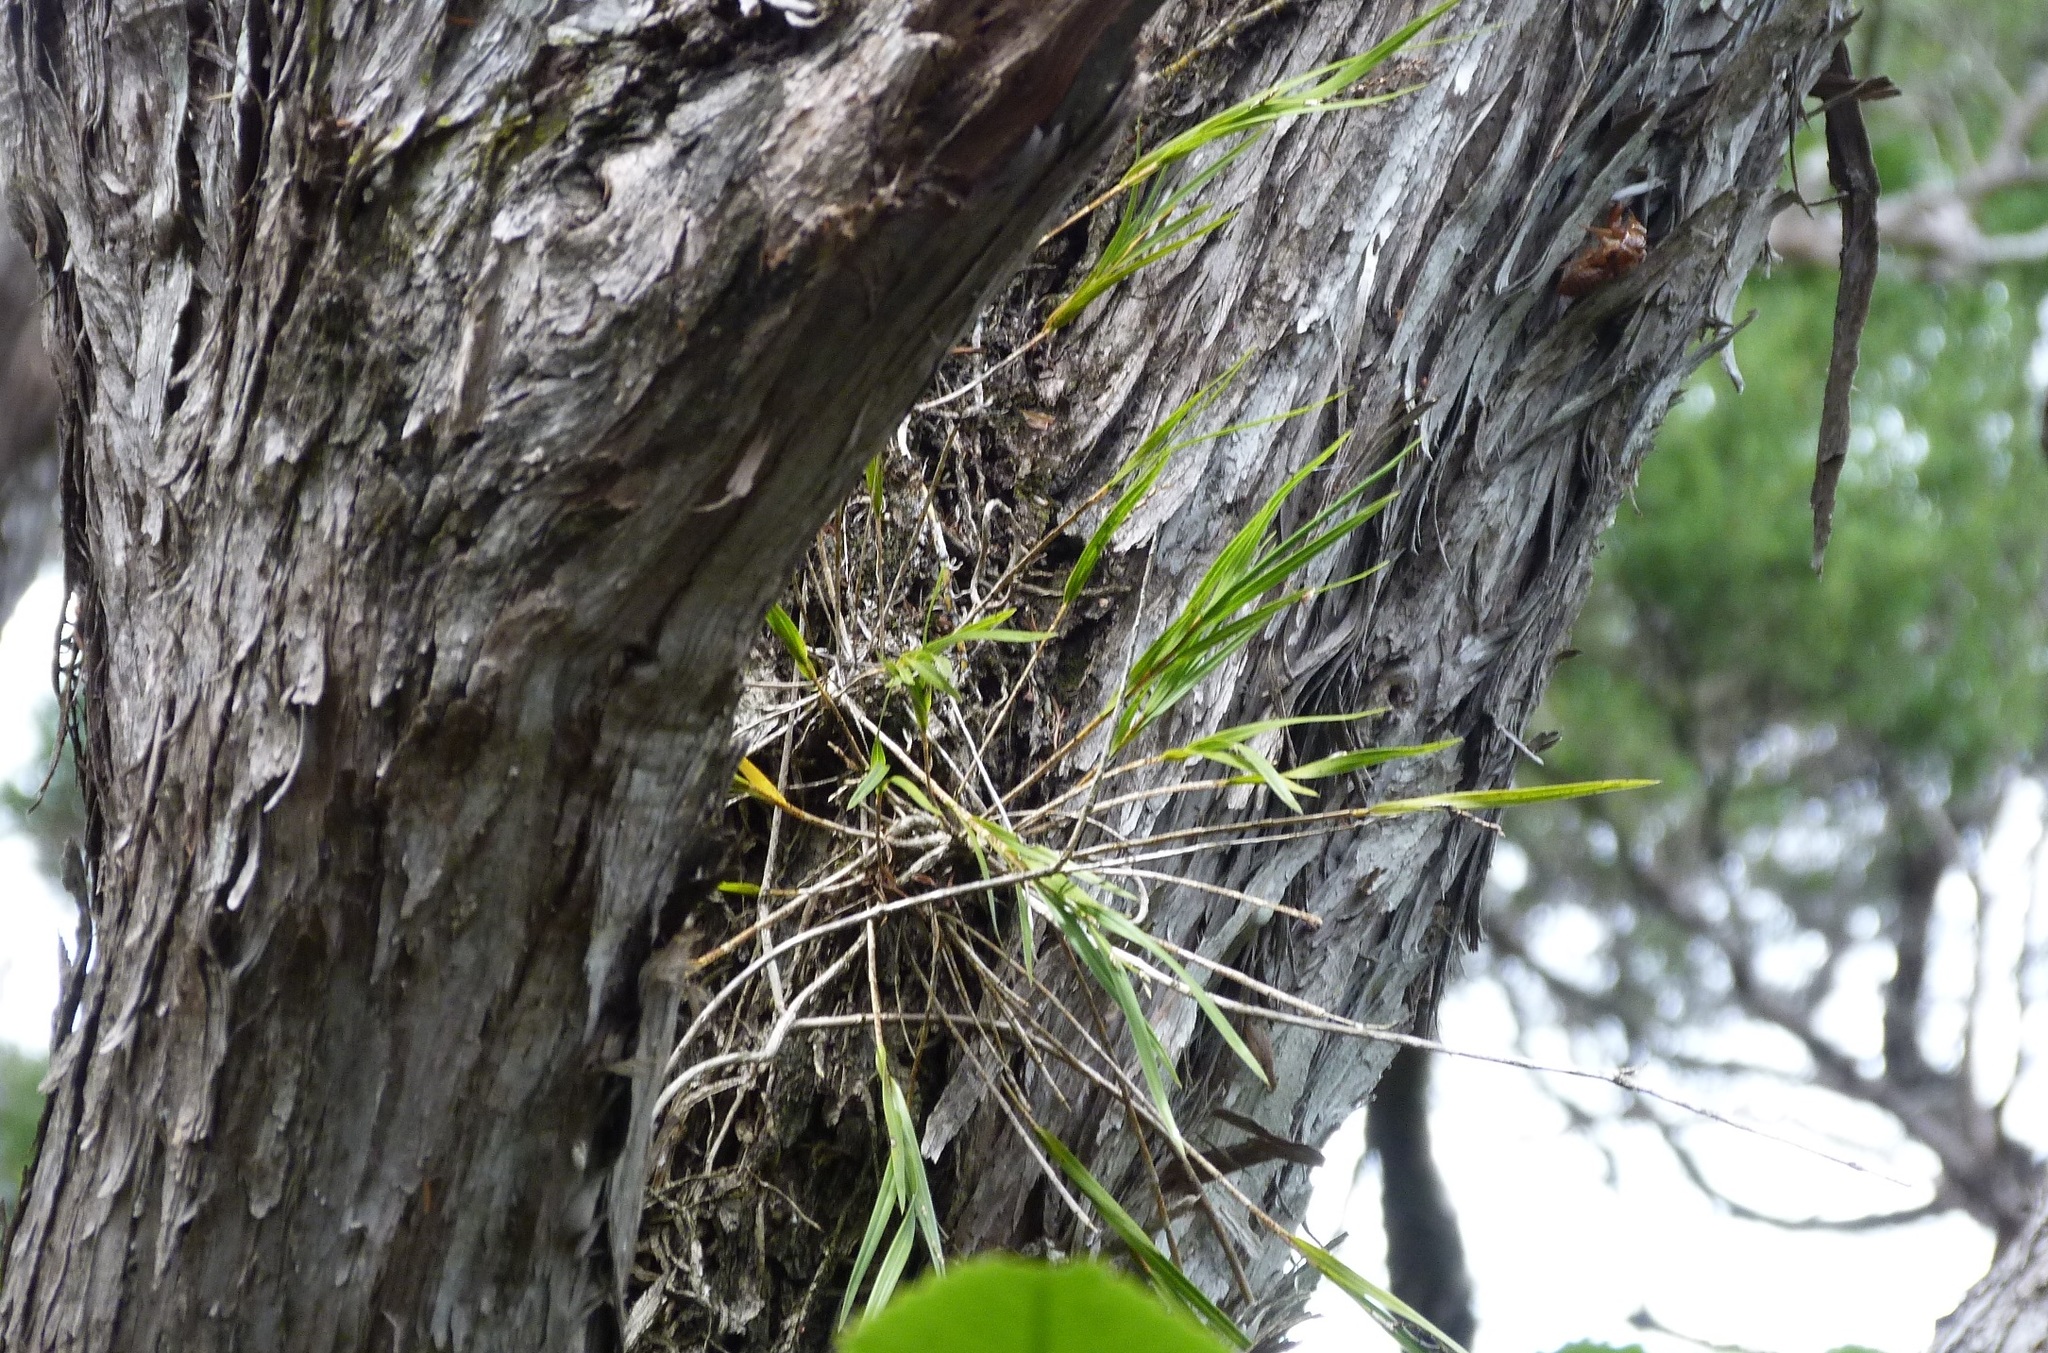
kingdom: Plantae
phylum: Tracheophyta
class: Liliopsida
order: Asparagales
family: Orchidaceae
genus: Earina
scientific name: Earina mucronata
